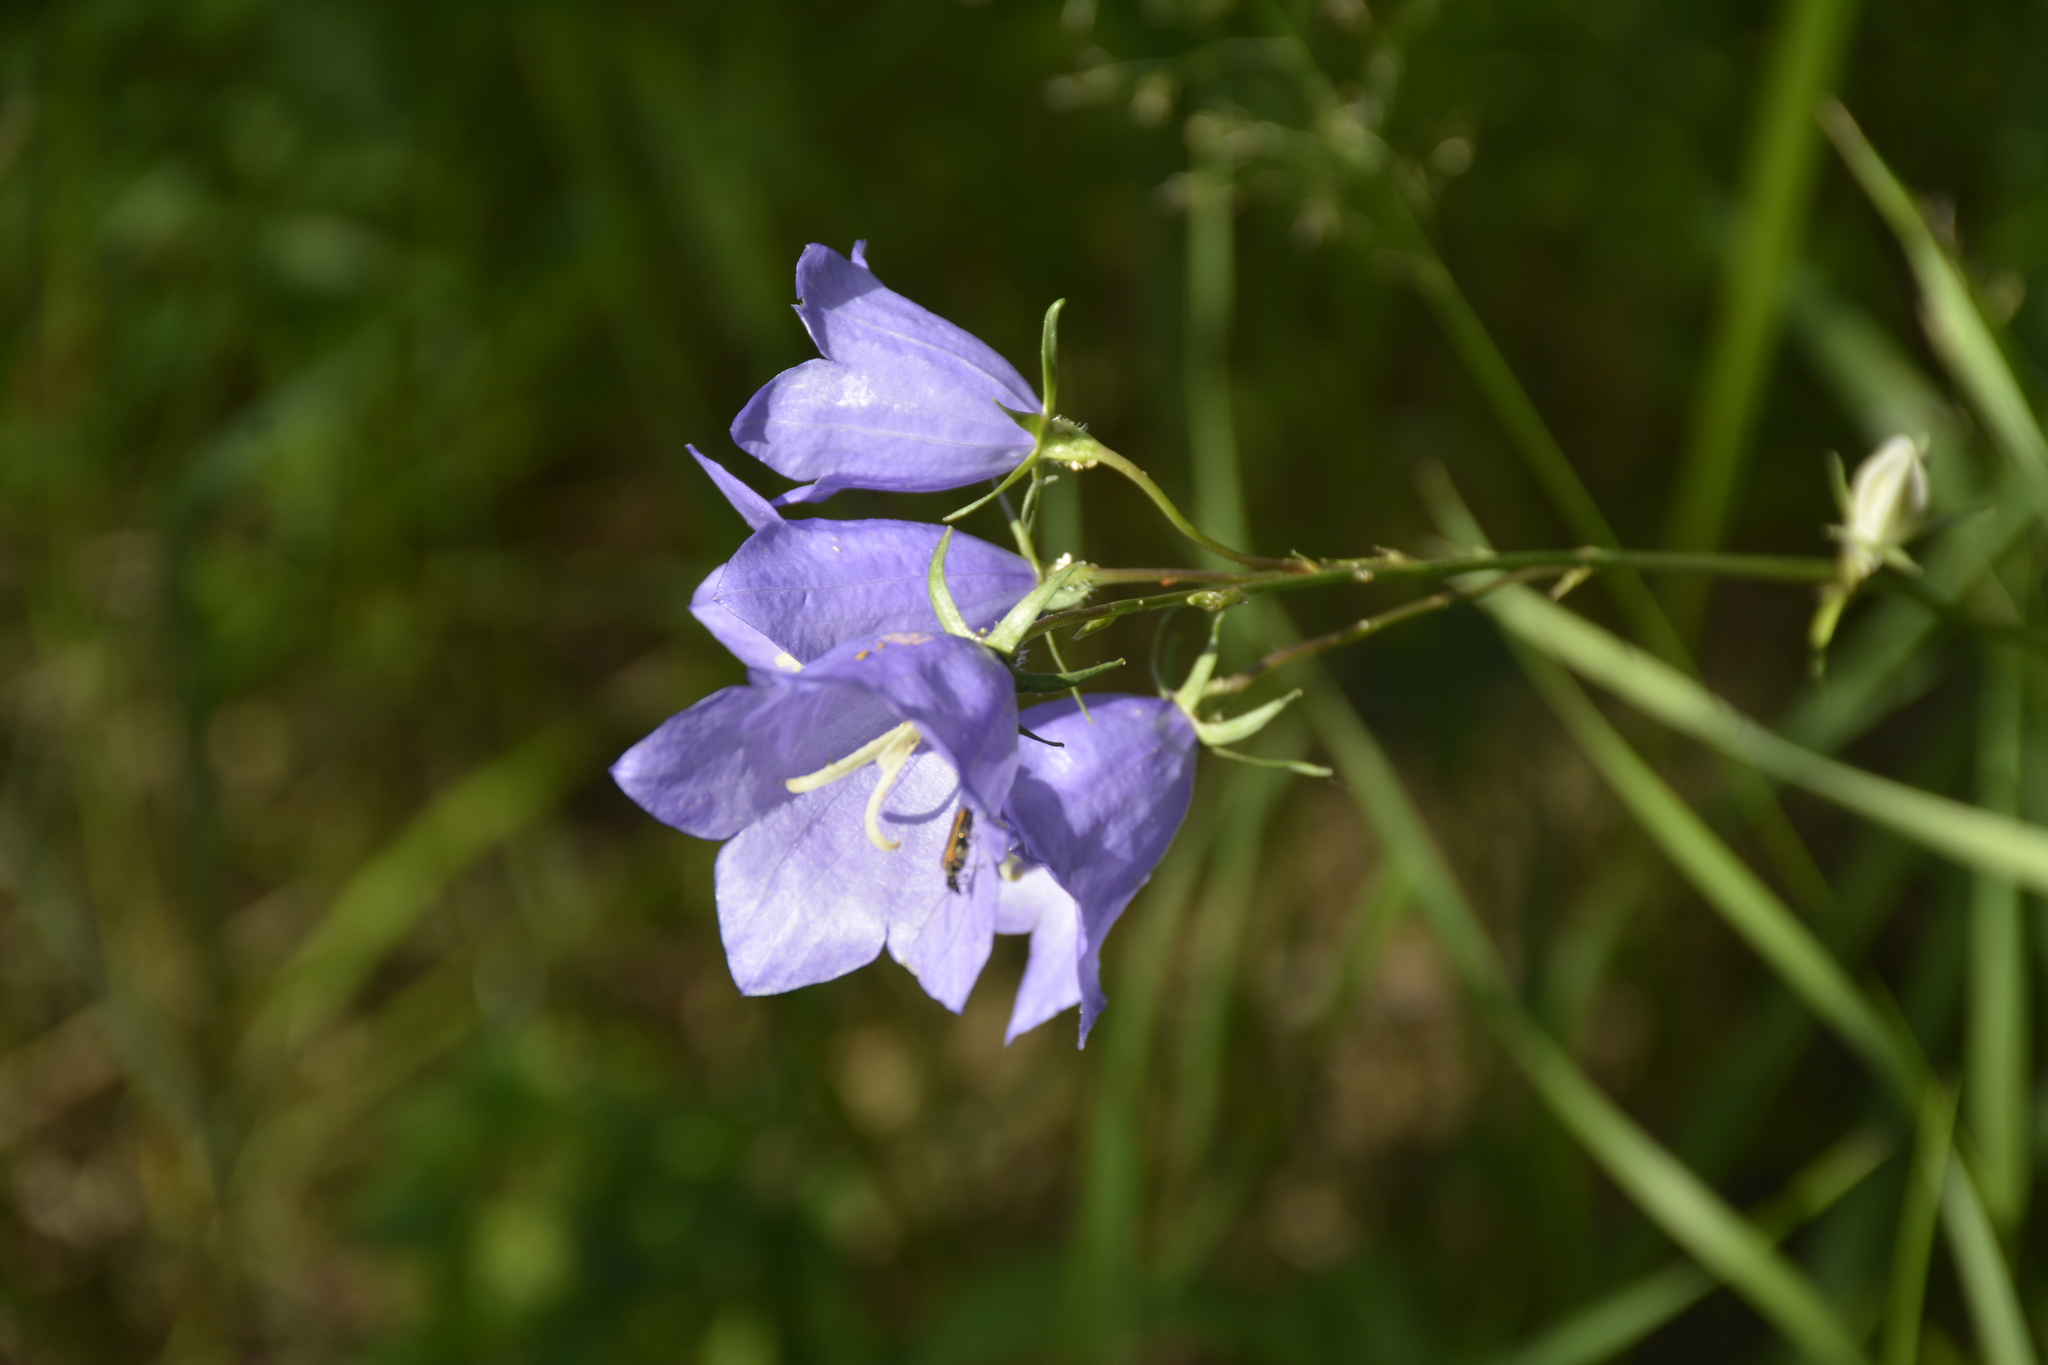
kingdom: Plantae
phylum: Tracheophyta
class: Magnoliopsida
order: Asterales
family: Campanulaceae
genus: Campanula
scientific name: Campanula persicifolia
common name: Peach-leaved bellflower
